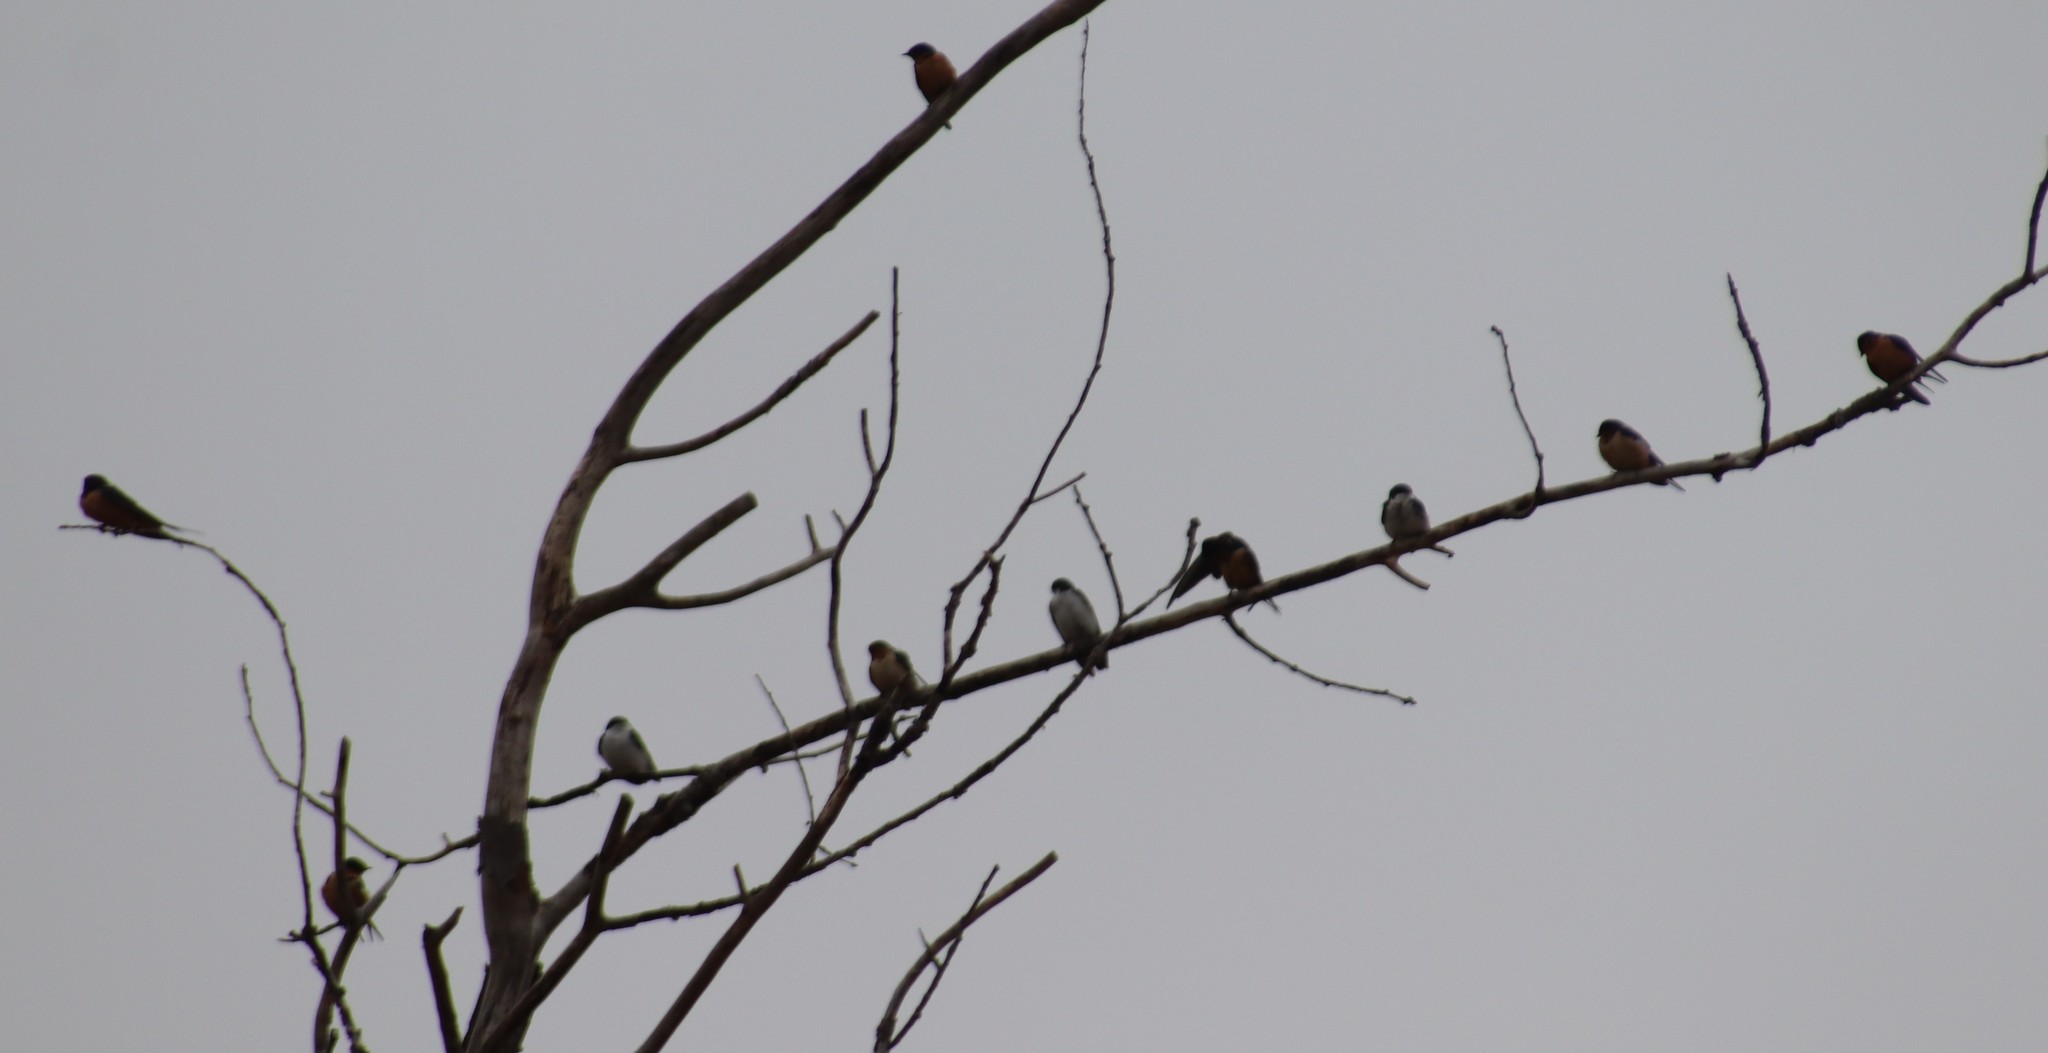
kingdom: Animalia
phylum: Chordata
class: Aves
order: Passeriformes
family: Hirundinidae
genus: Hirundo
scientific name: Hirundo rustica
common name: Barn swallow
